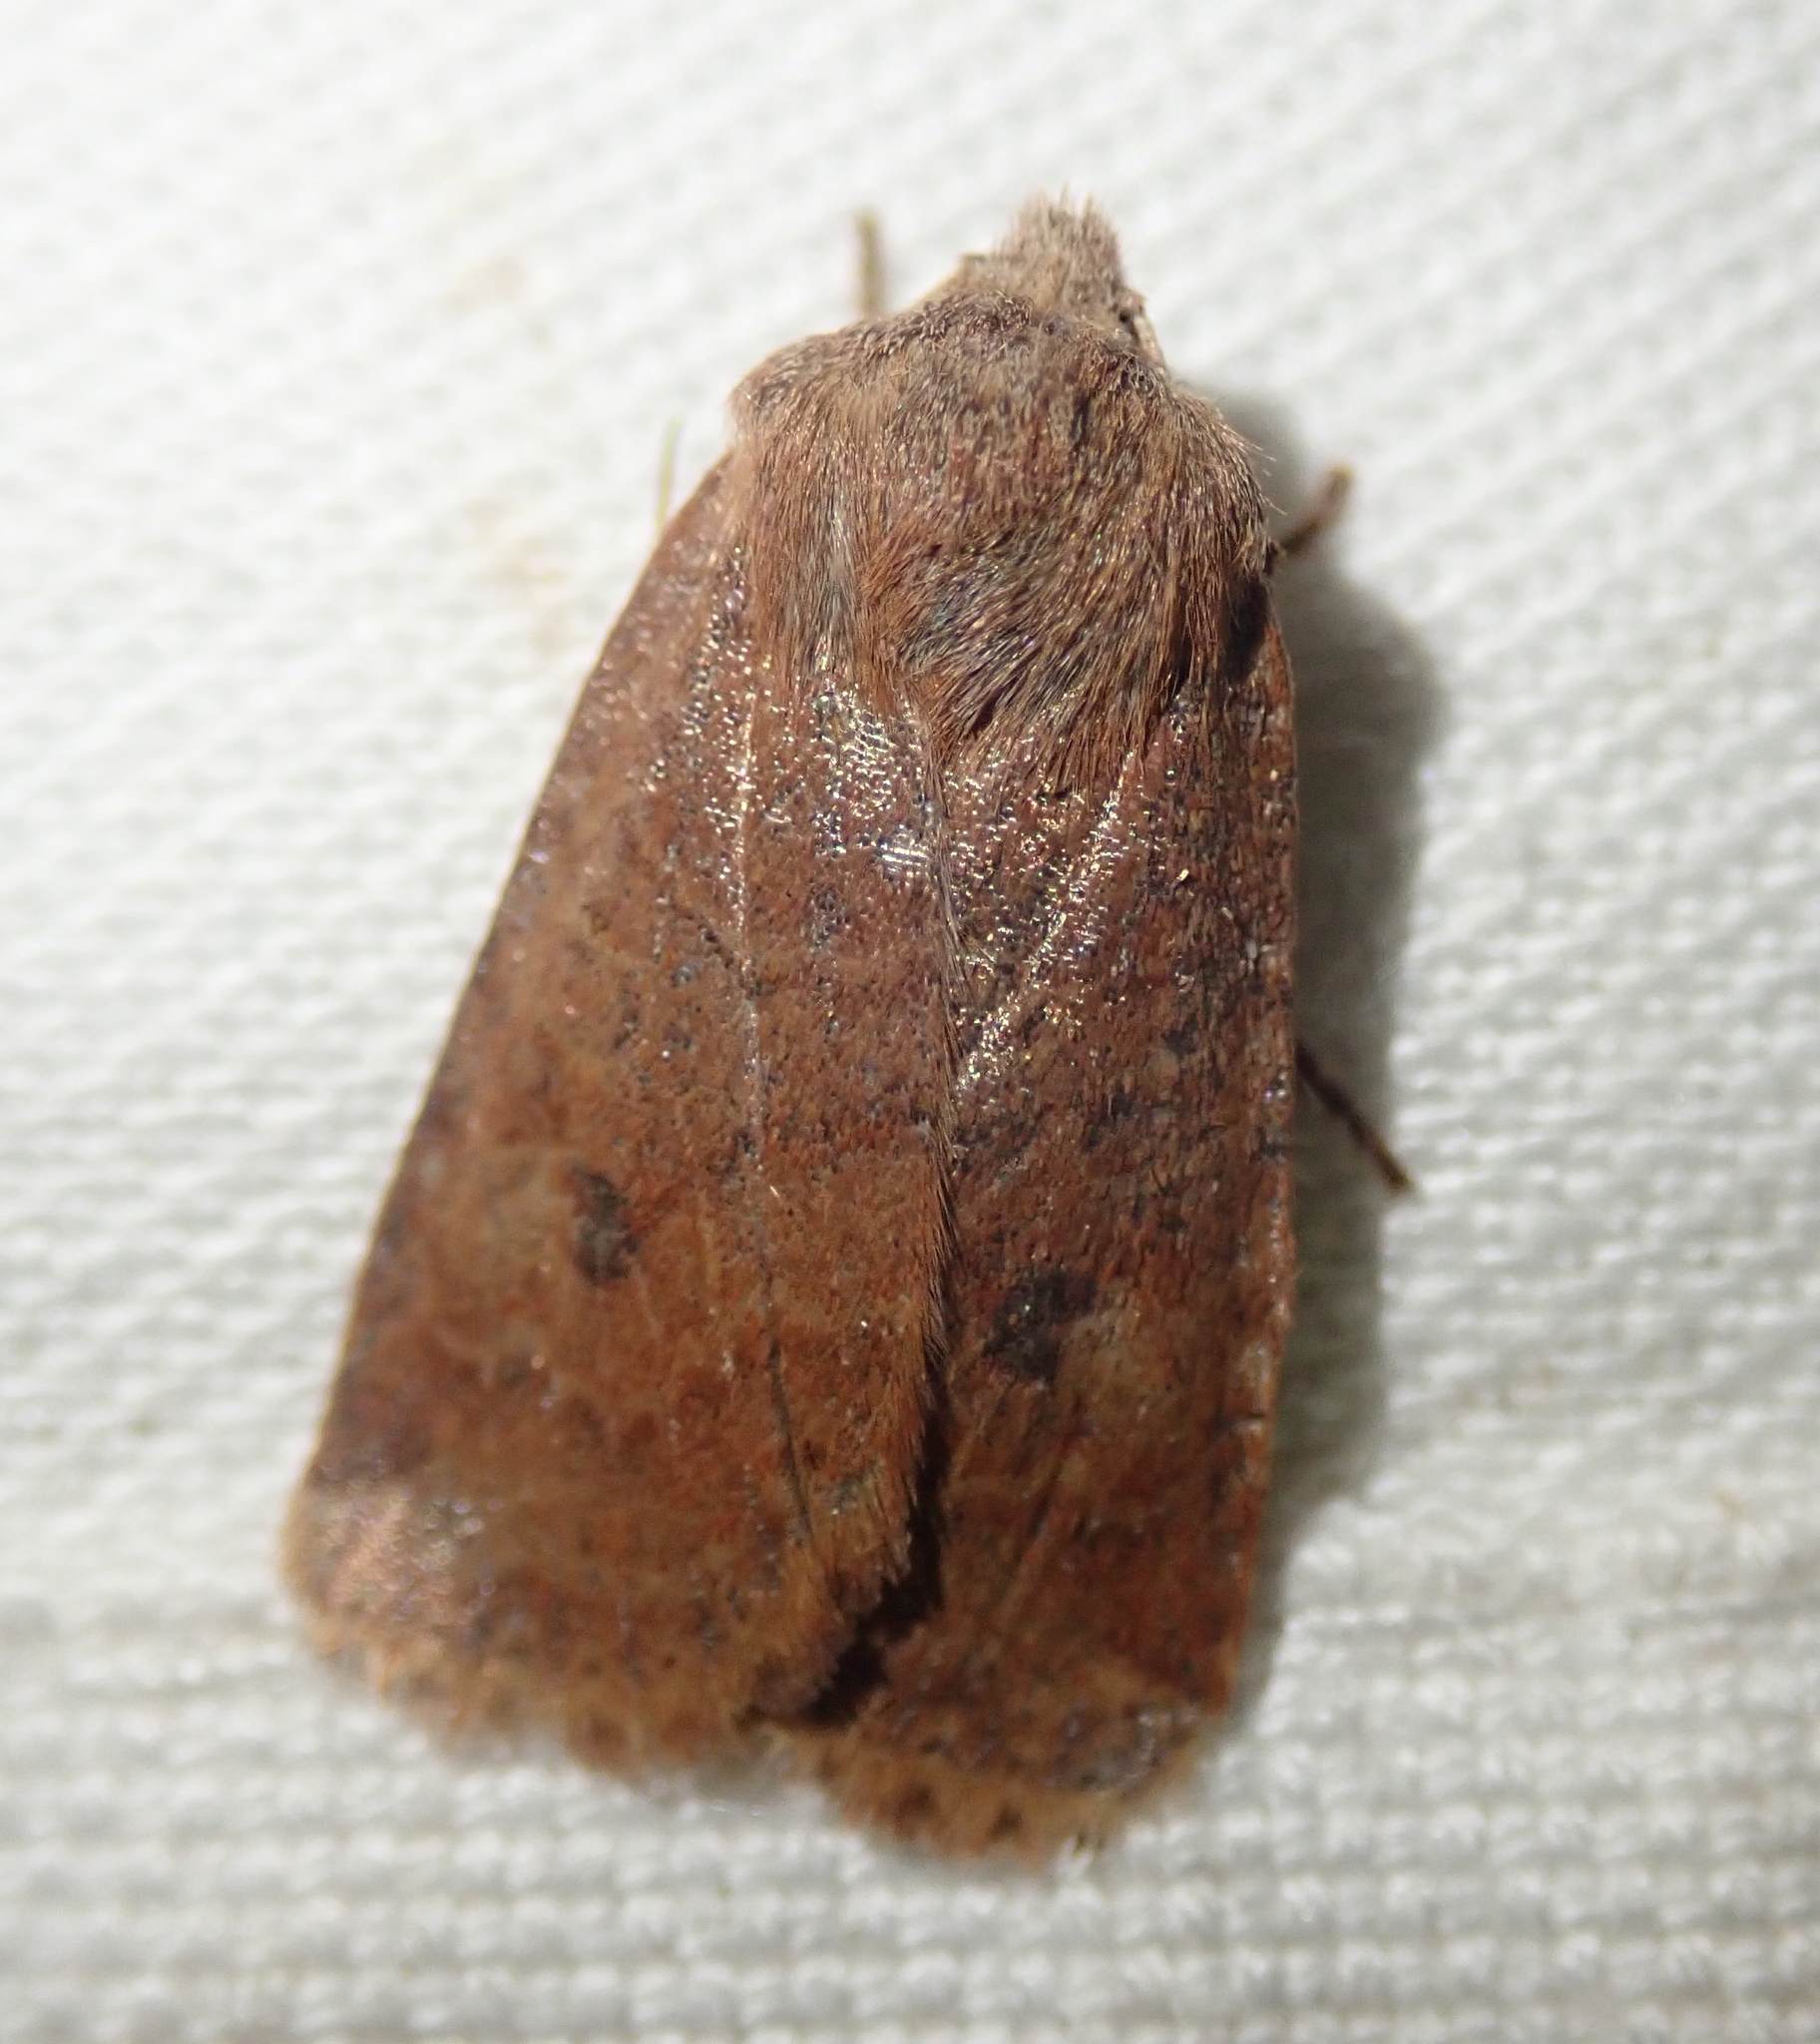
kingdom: Animalia
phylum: Arthropoda
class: Insecta
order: Lepidoptera
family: Noctuidae
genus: Conistra
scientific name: Conistra vaccinii
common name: Chestnut
